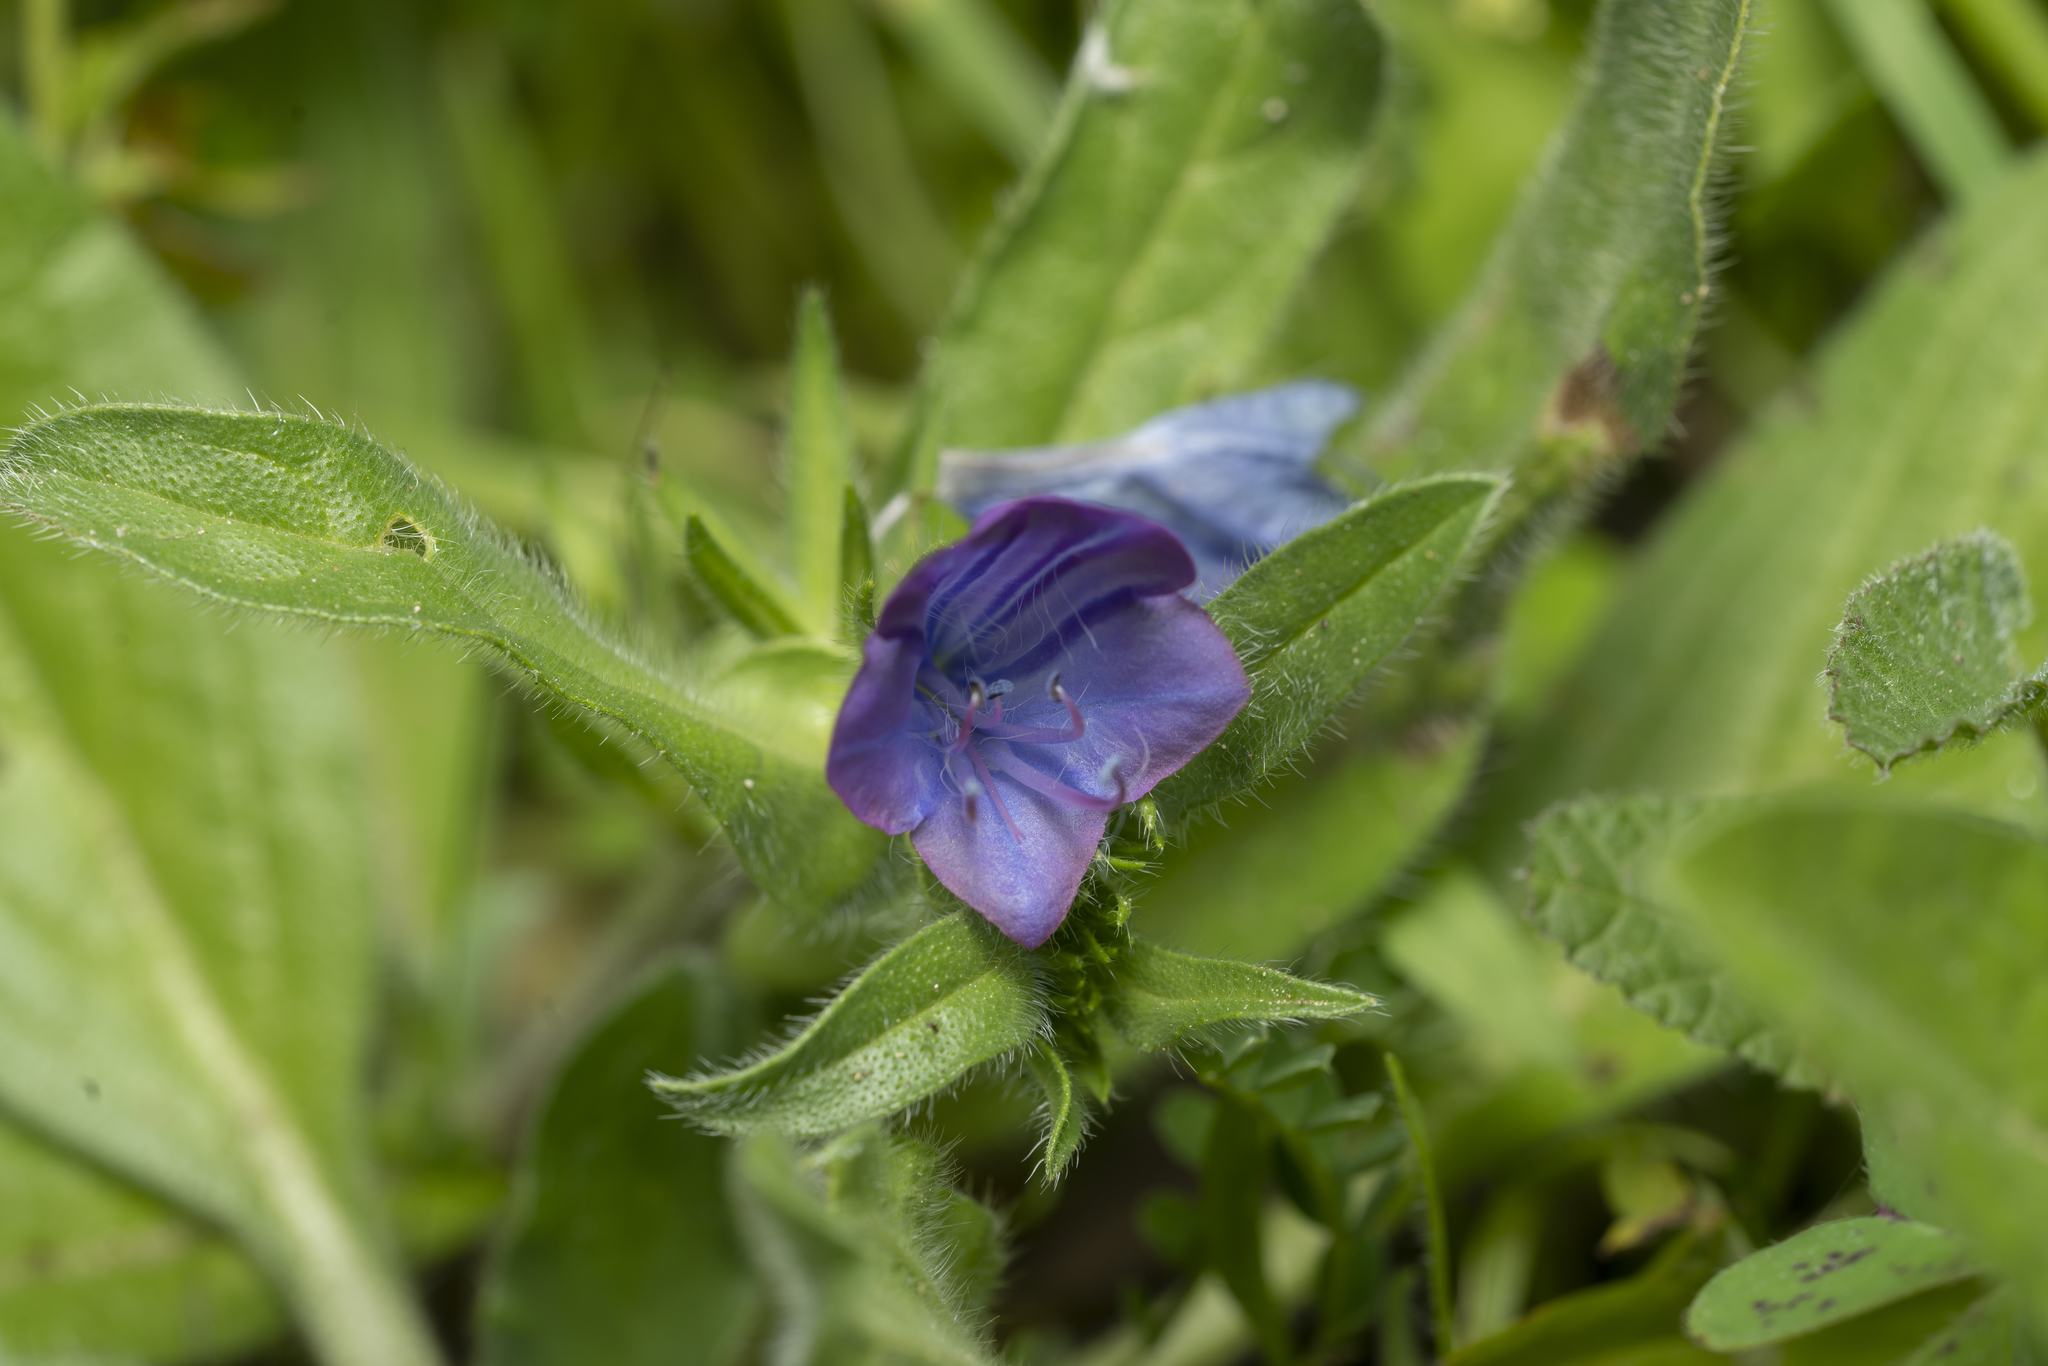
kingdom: Plantae
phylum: Tracheophyta
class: Magnoliopsida
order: Boraginales
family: Boraginaceae
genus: Echium
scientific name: Echium plantagineum
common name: Purple viper's-bugloss
